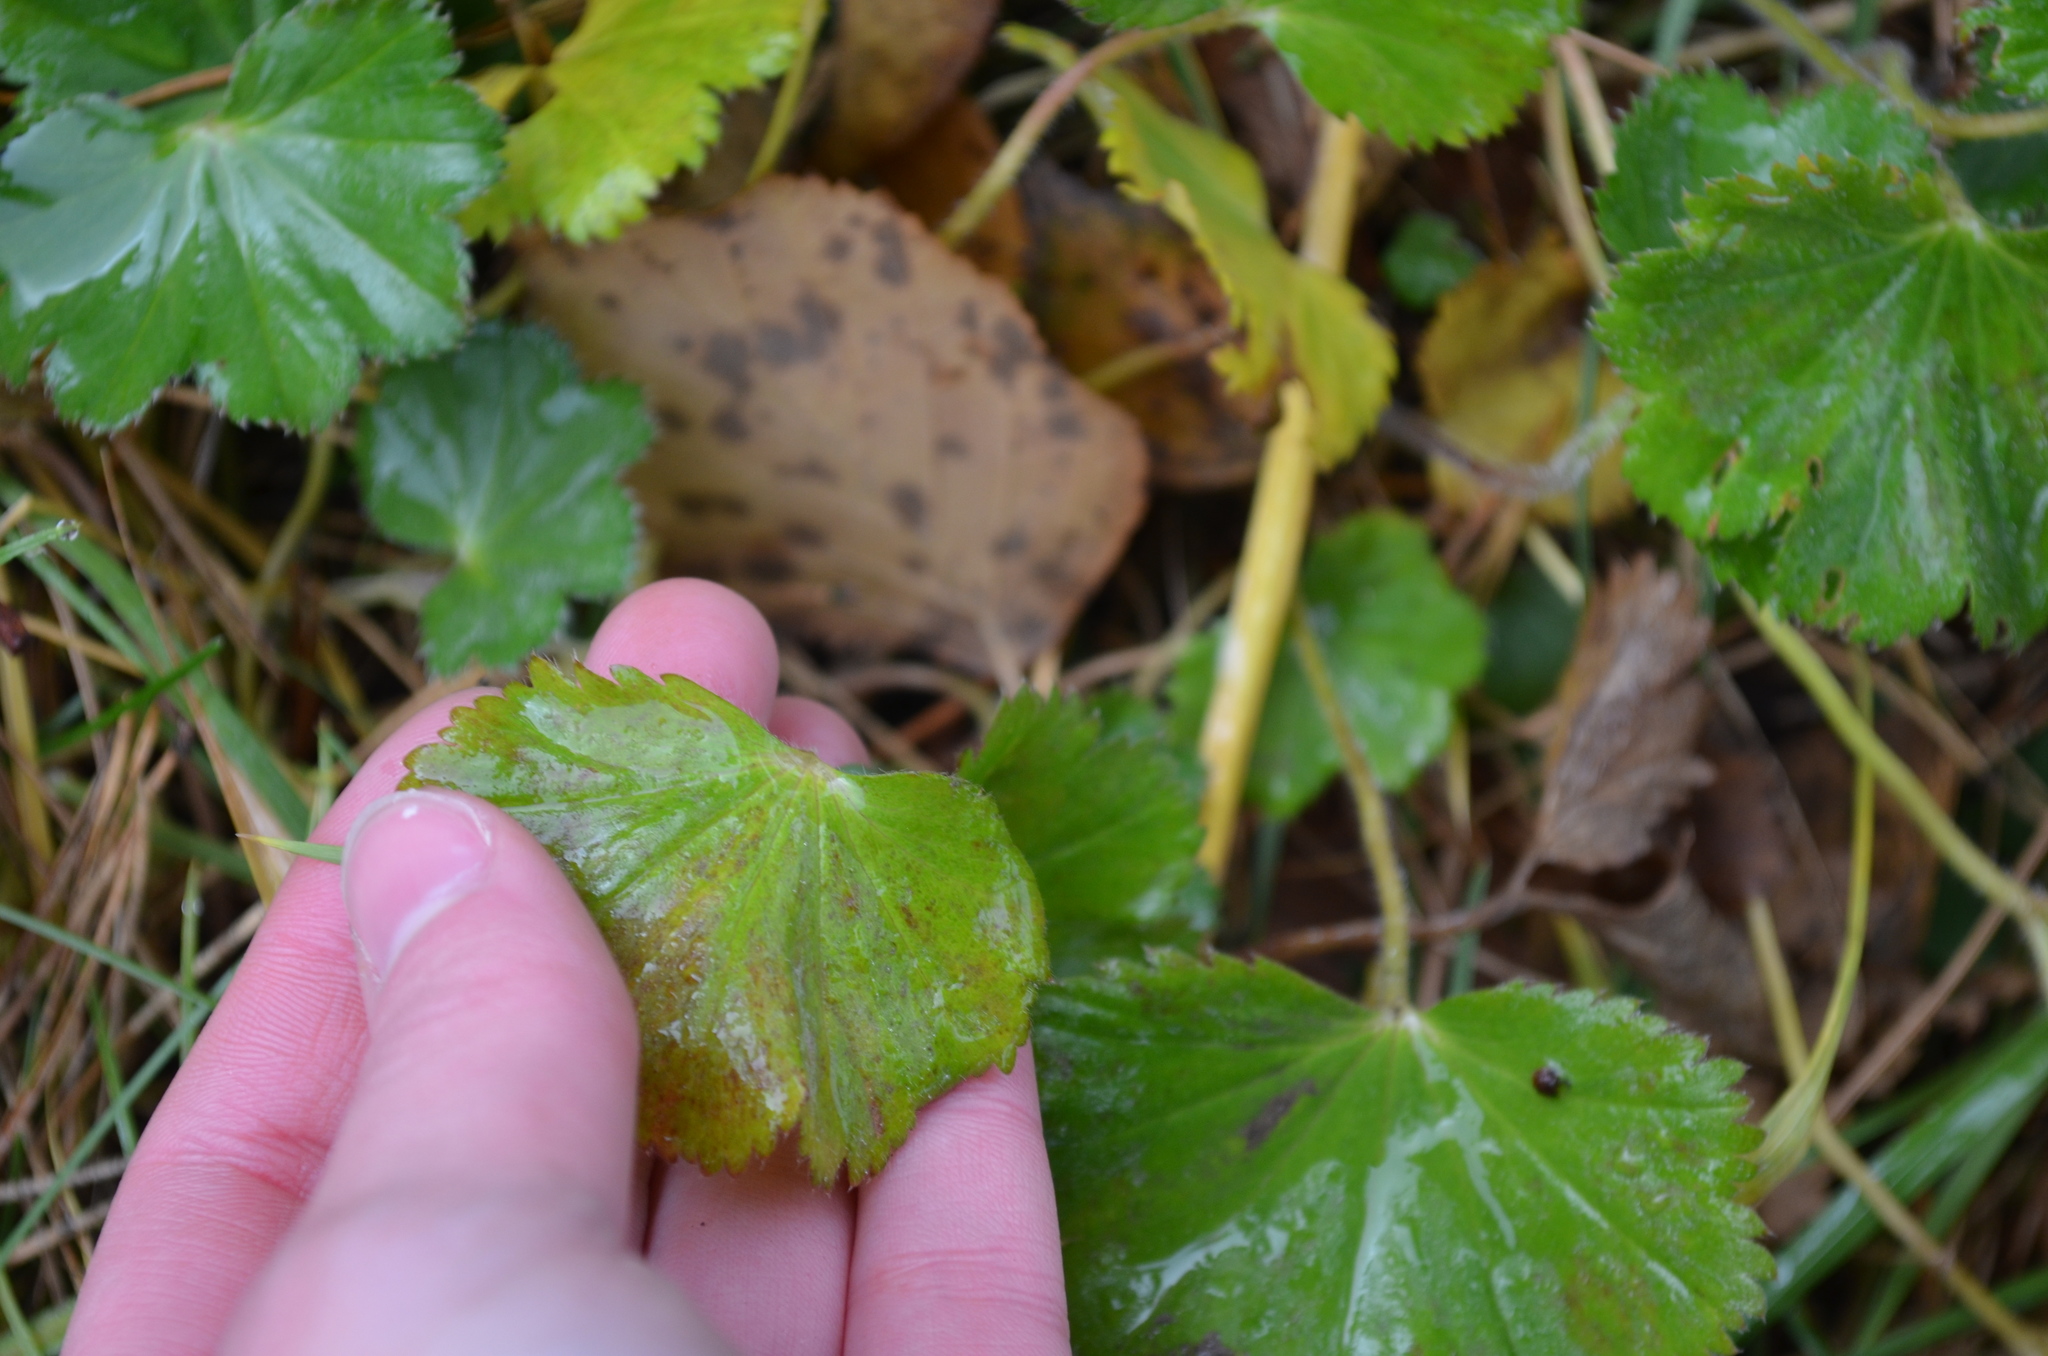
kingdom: Plantae
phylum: Tracheophyta
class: Magnoliopsida
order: Rosales
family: Rosaceae
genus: Alchemilla
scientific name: Alchemilla
